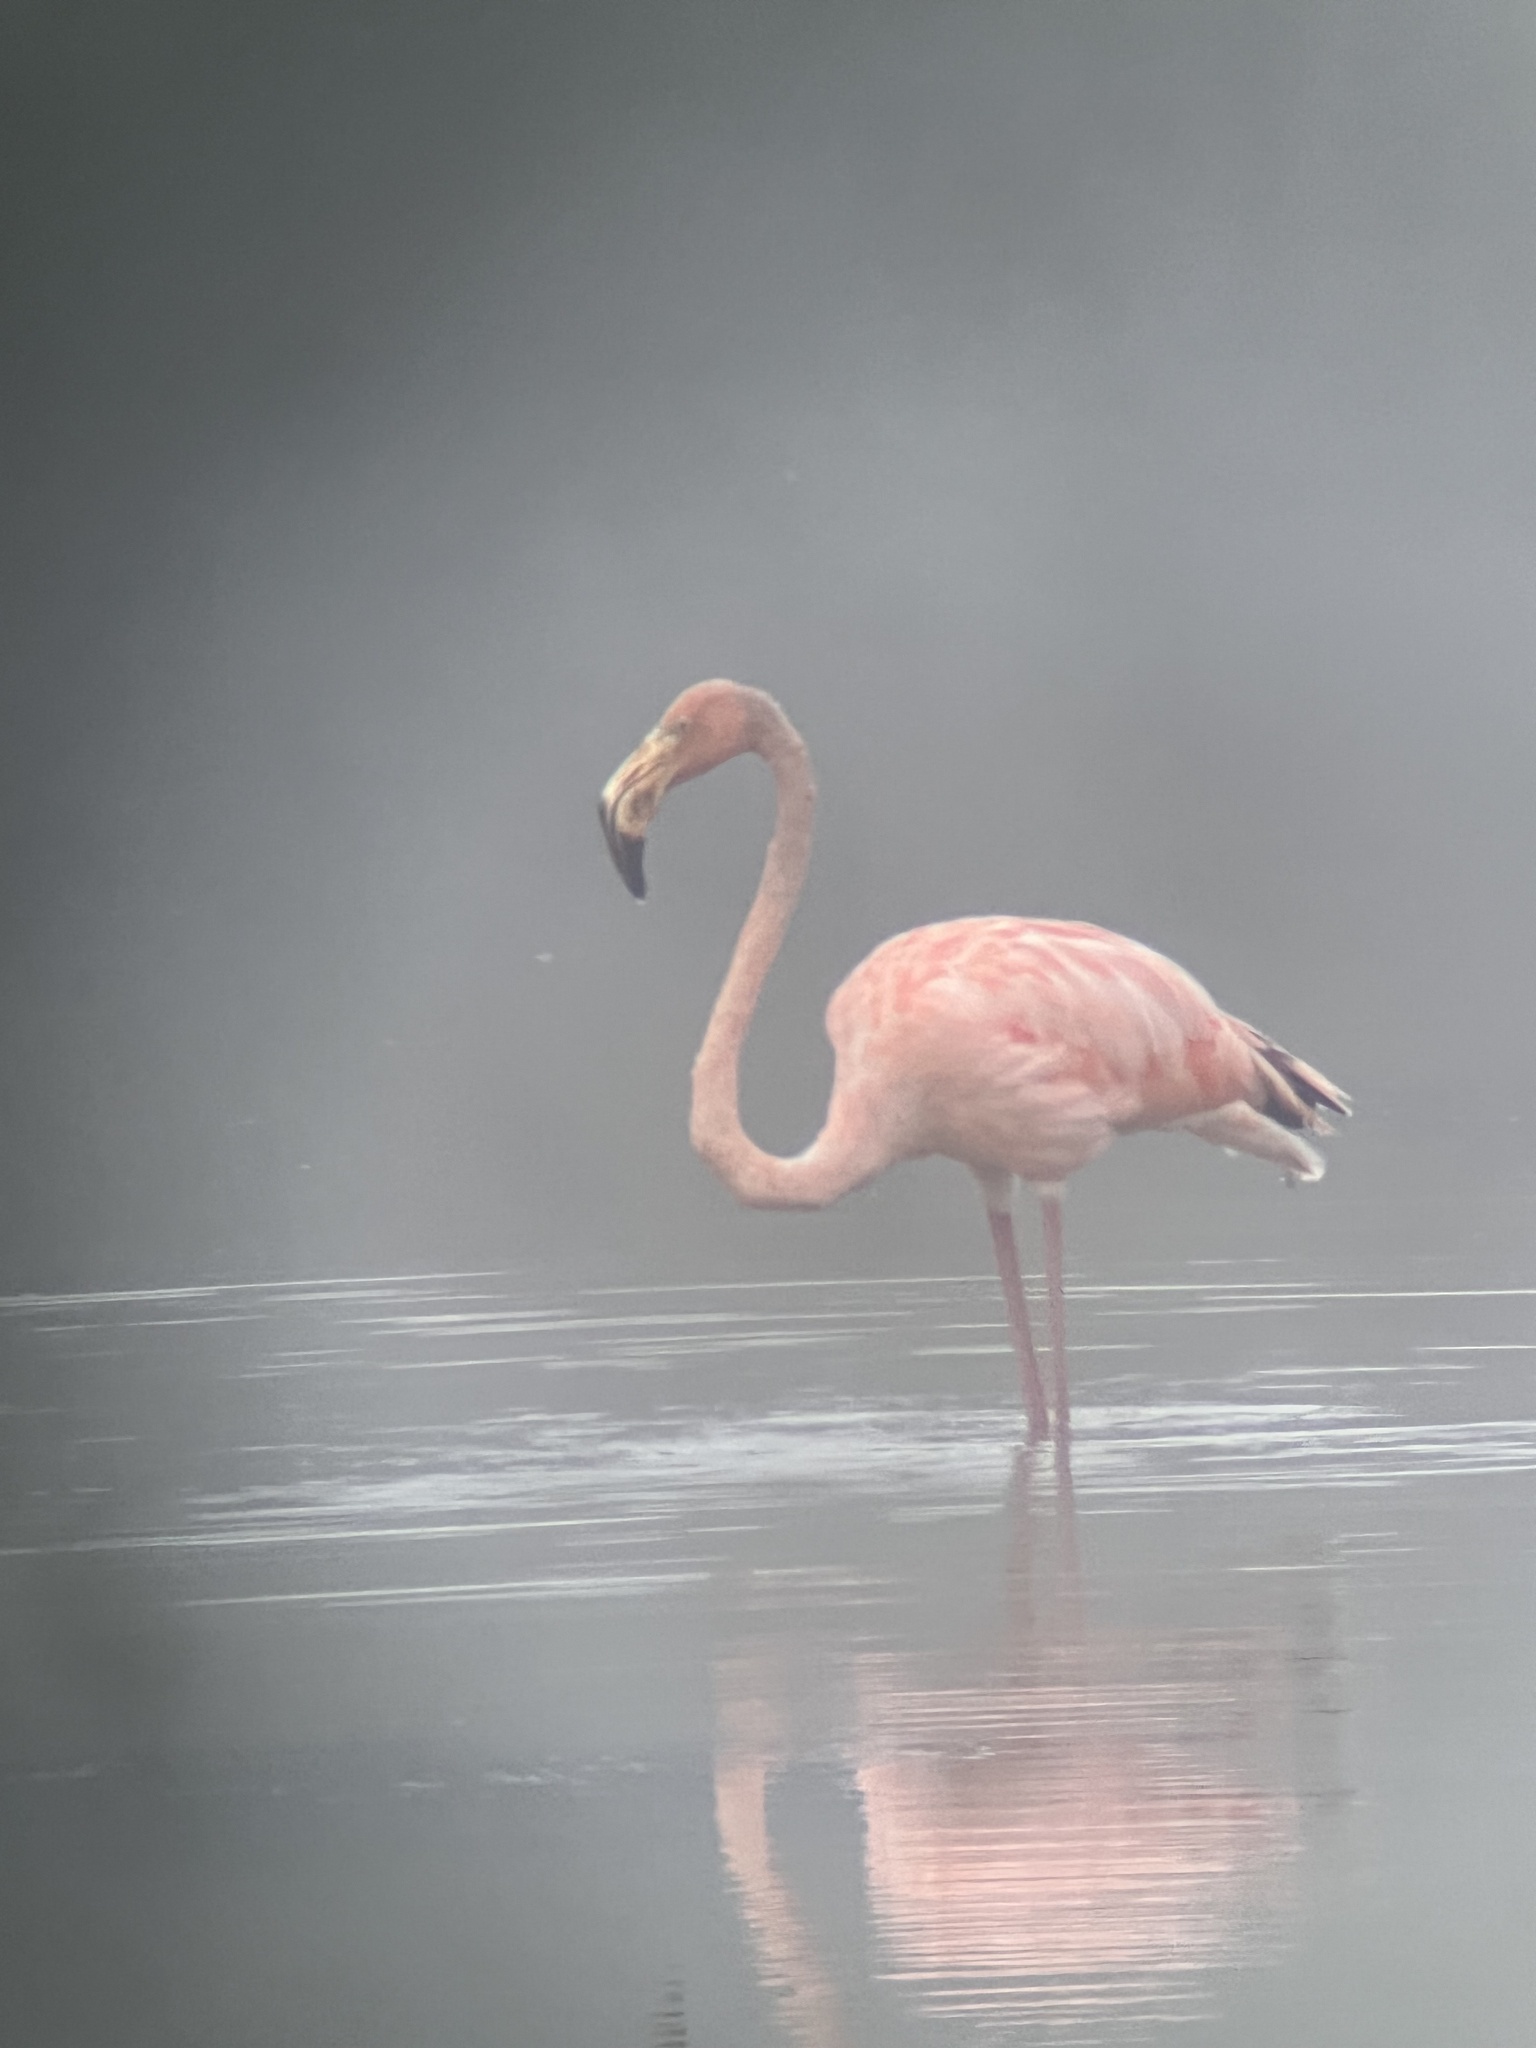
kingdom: Animalia
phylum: Chordata
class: Aves
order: Phoenicopteriformes
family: Phoenicopteridae
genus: Phoenicopterus
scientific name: Phoenicopterus ruber
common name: American flamingo
